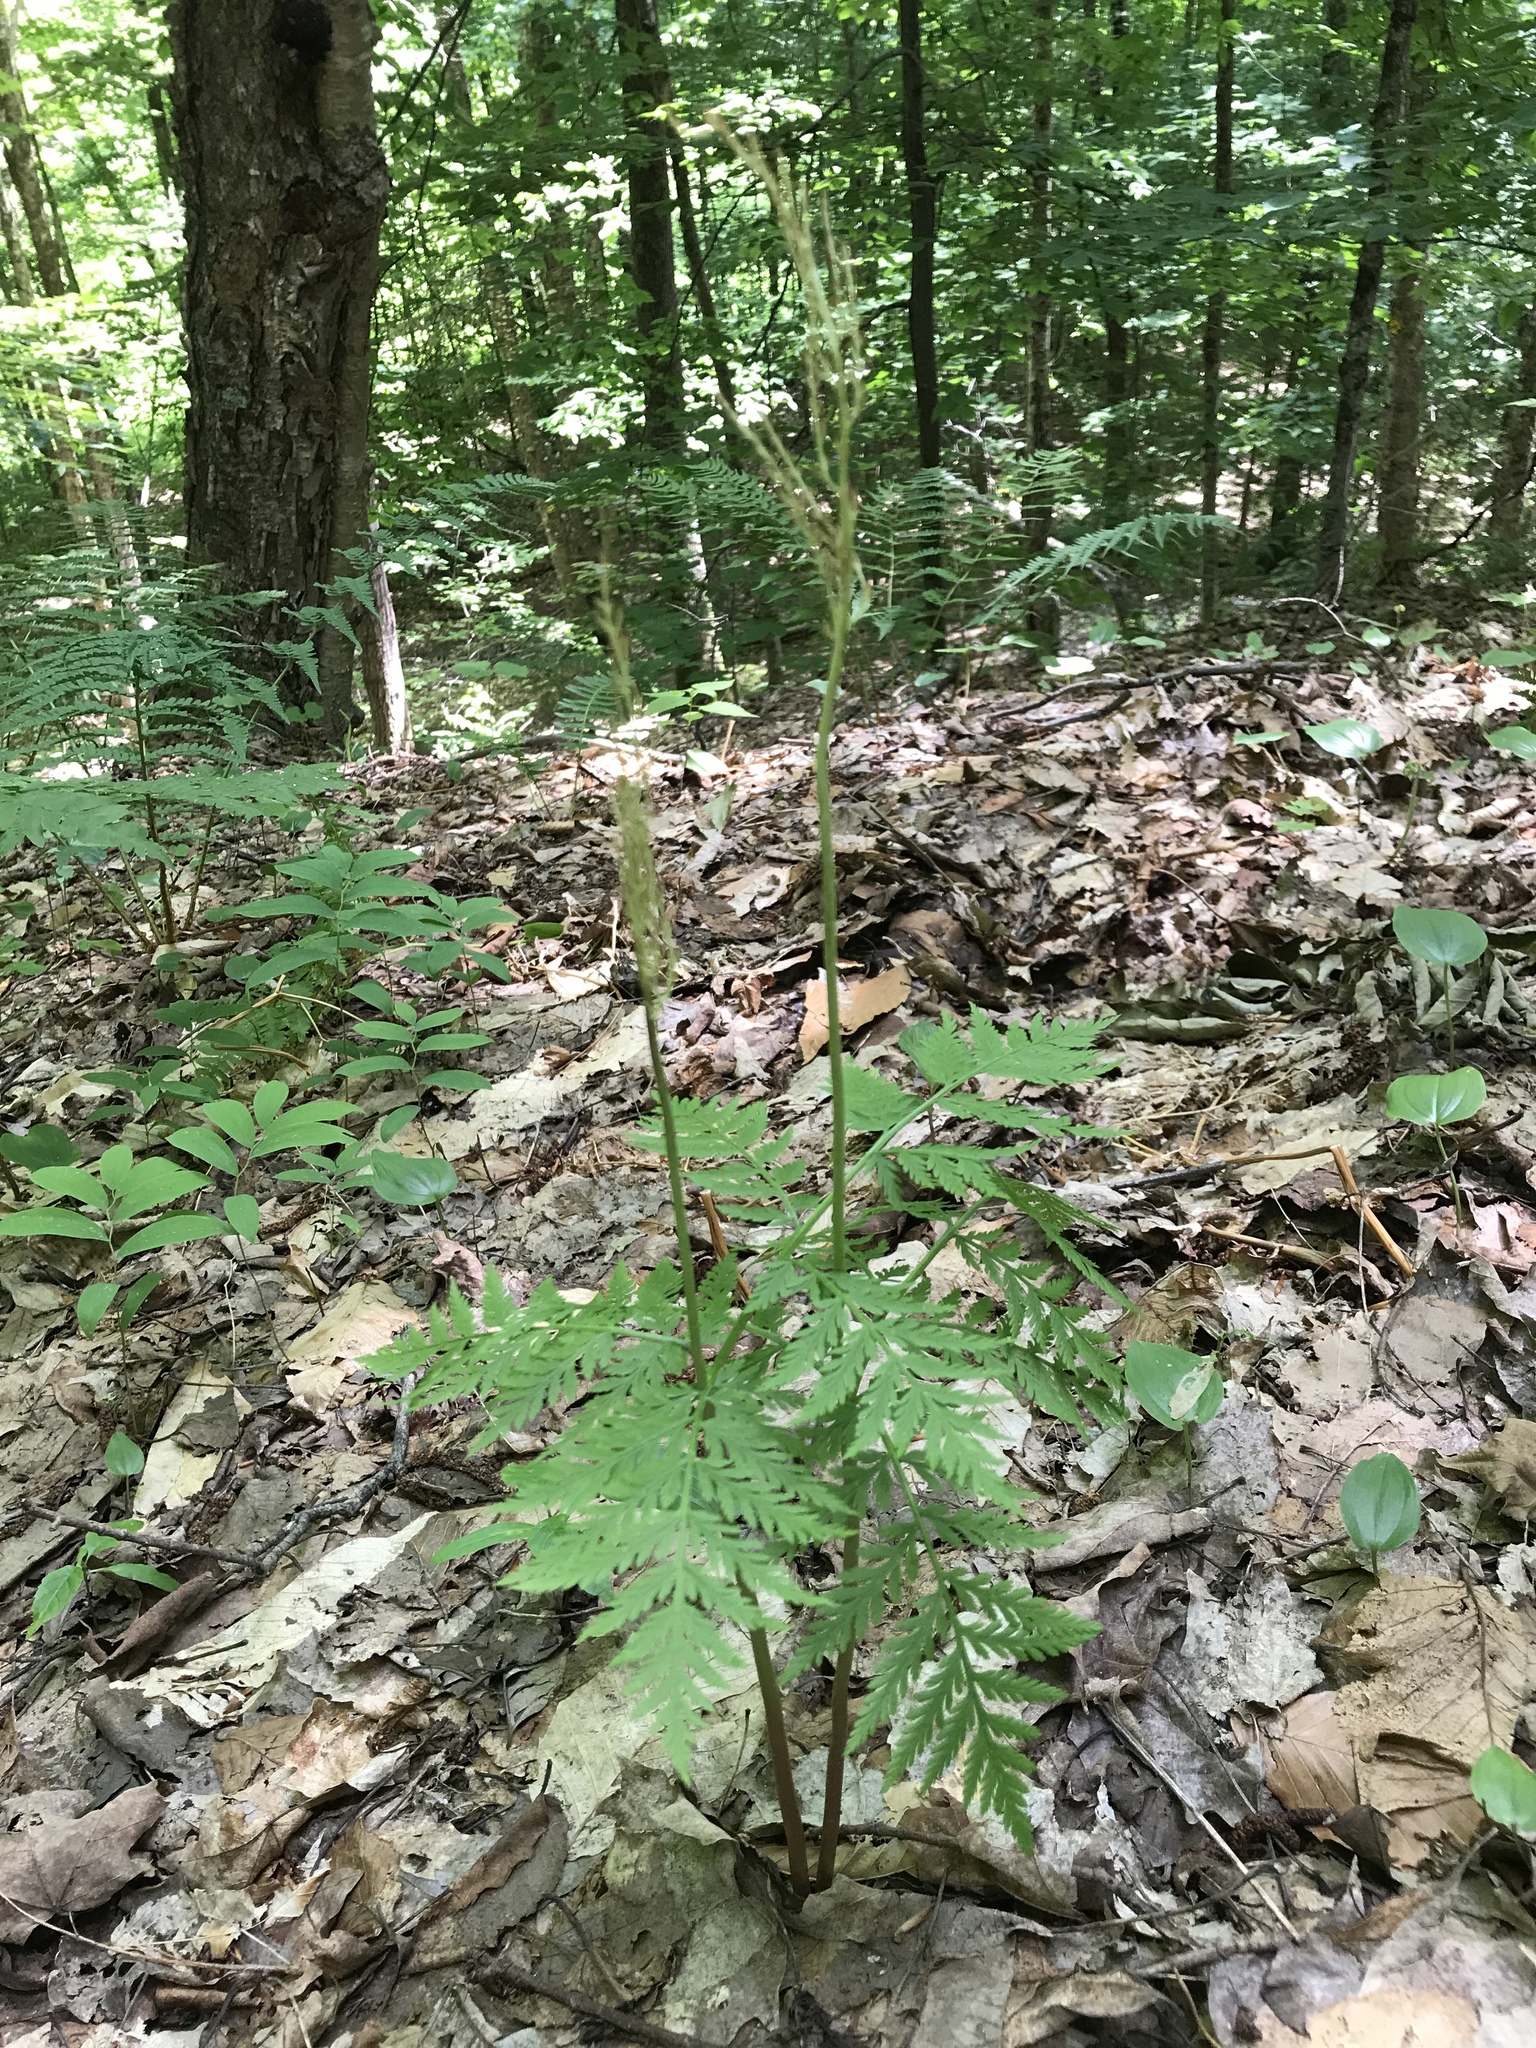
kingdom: Plantae
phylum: Tracheophyta
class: Polypodiopsida
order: Ophioglossales
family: Ophioglossaceae
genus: Botrypus
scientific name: Botrypus virginianus
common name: Common grapefern
